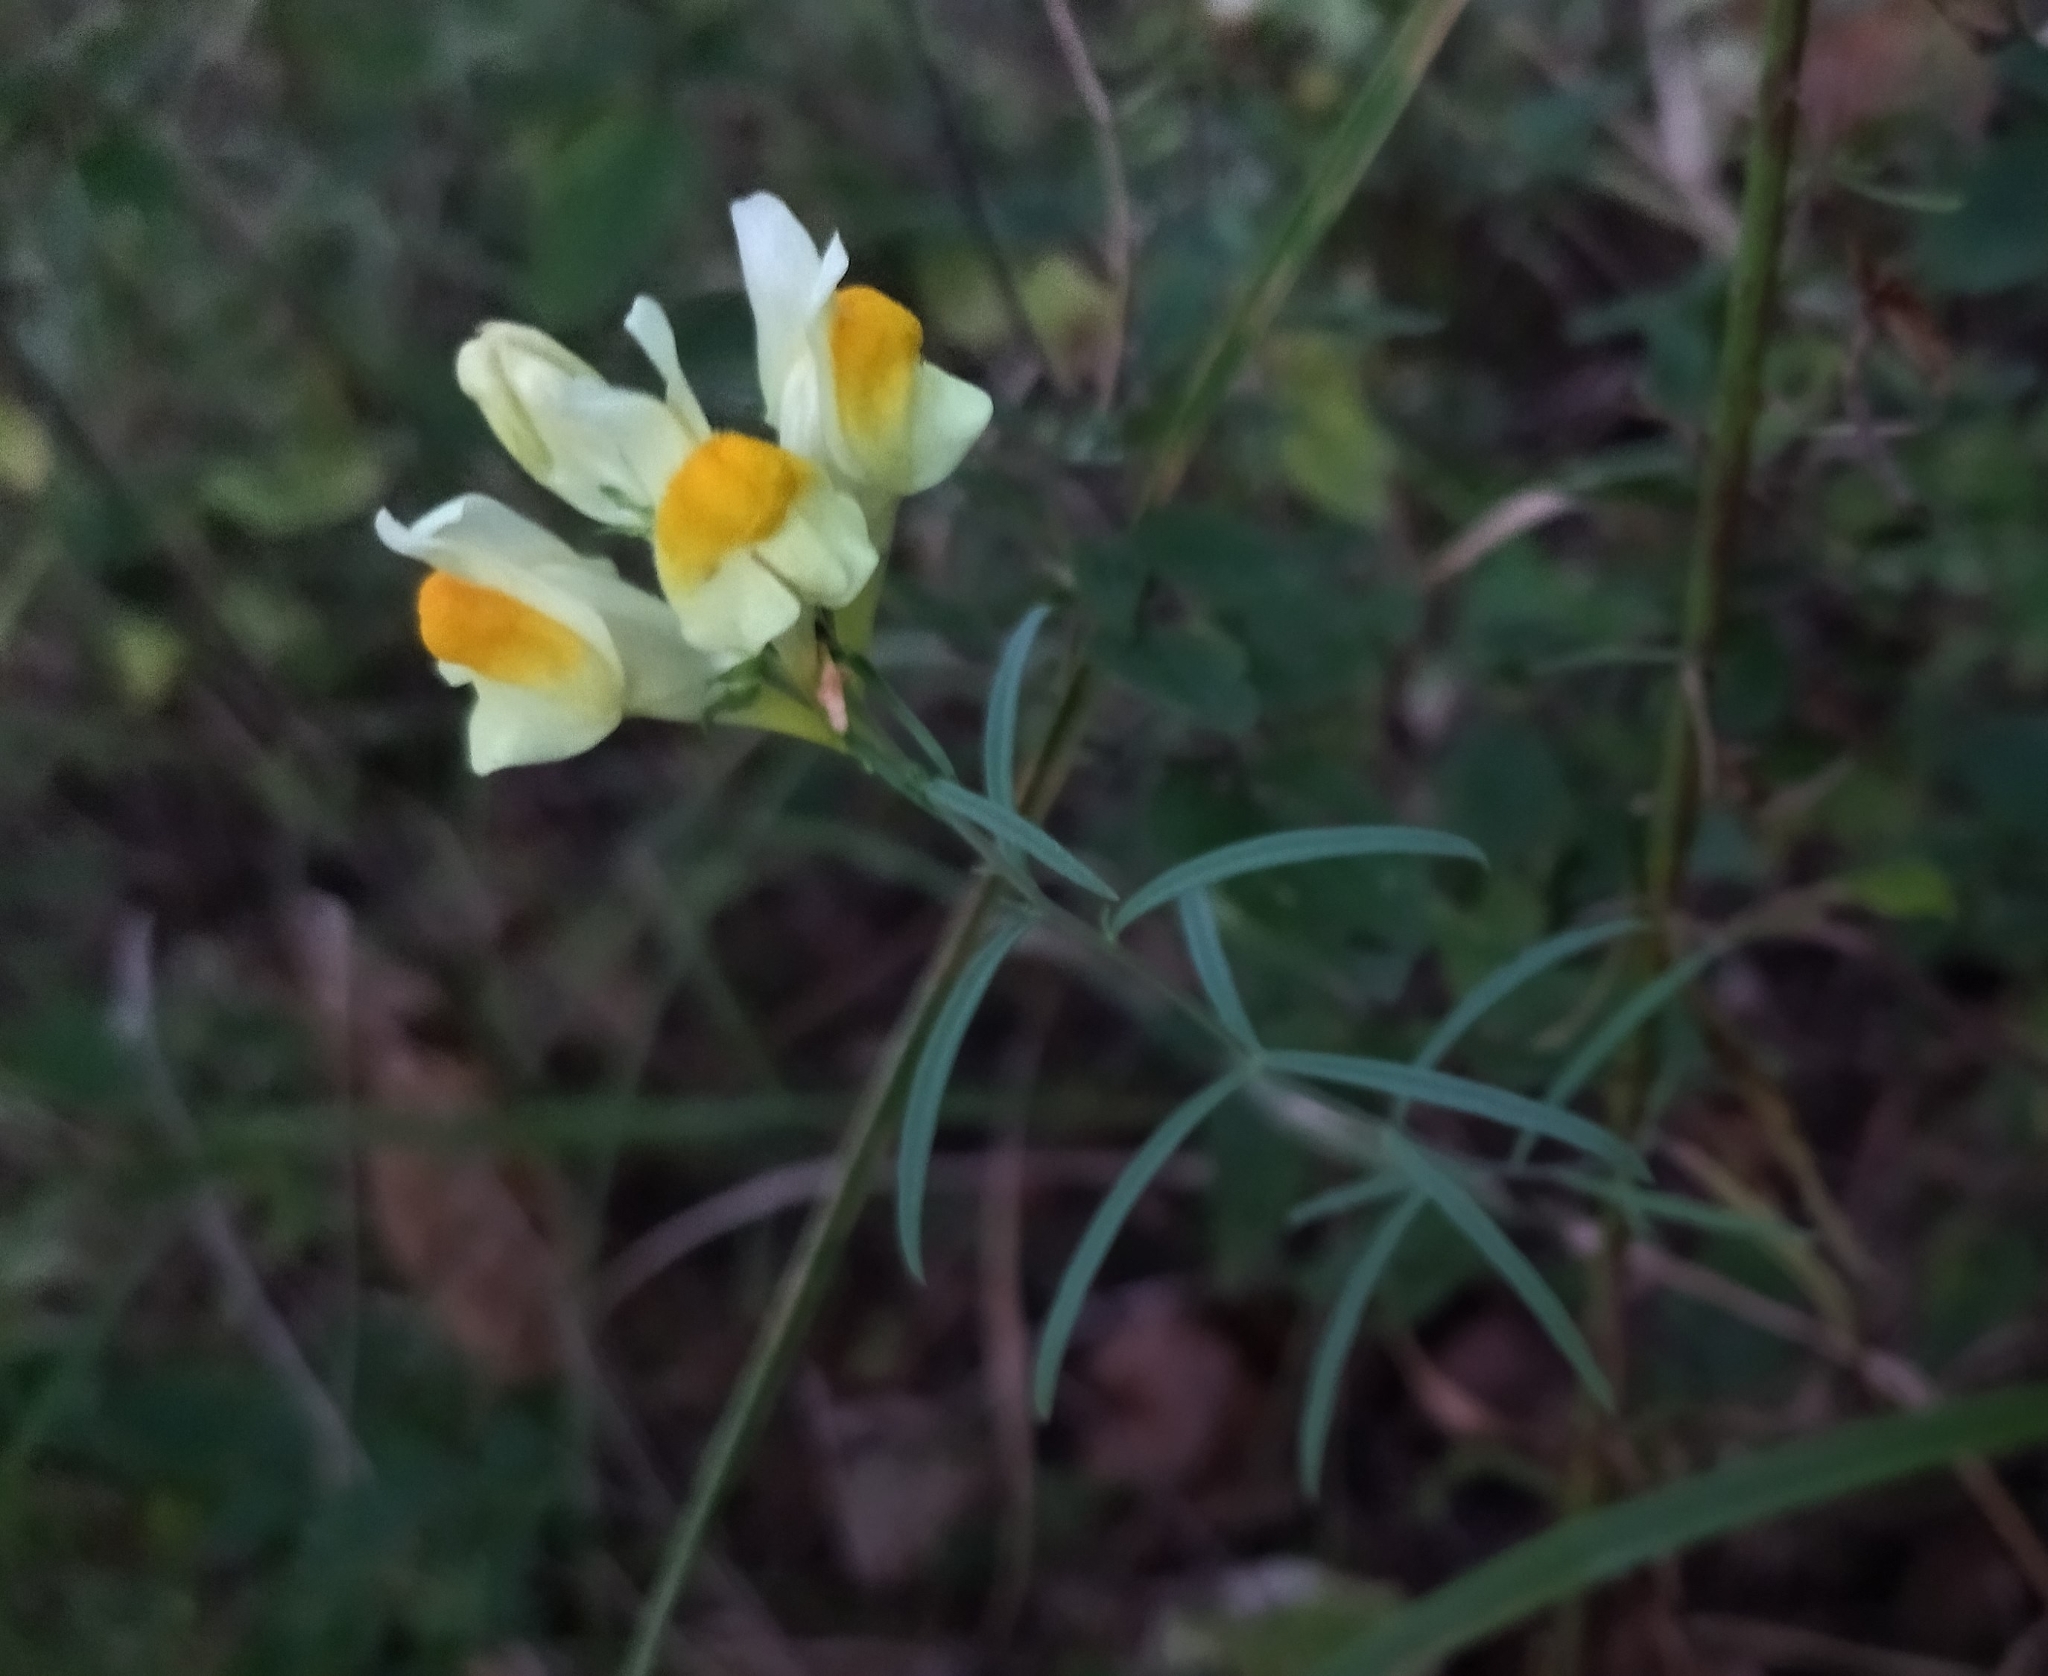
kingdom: Plantae
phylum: Tracheophyta
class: Magnoliopsida
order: Lamiales
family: Plantaginaceae
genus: Linaria
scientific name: Linaria vulgaris
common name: Butter and eggs
